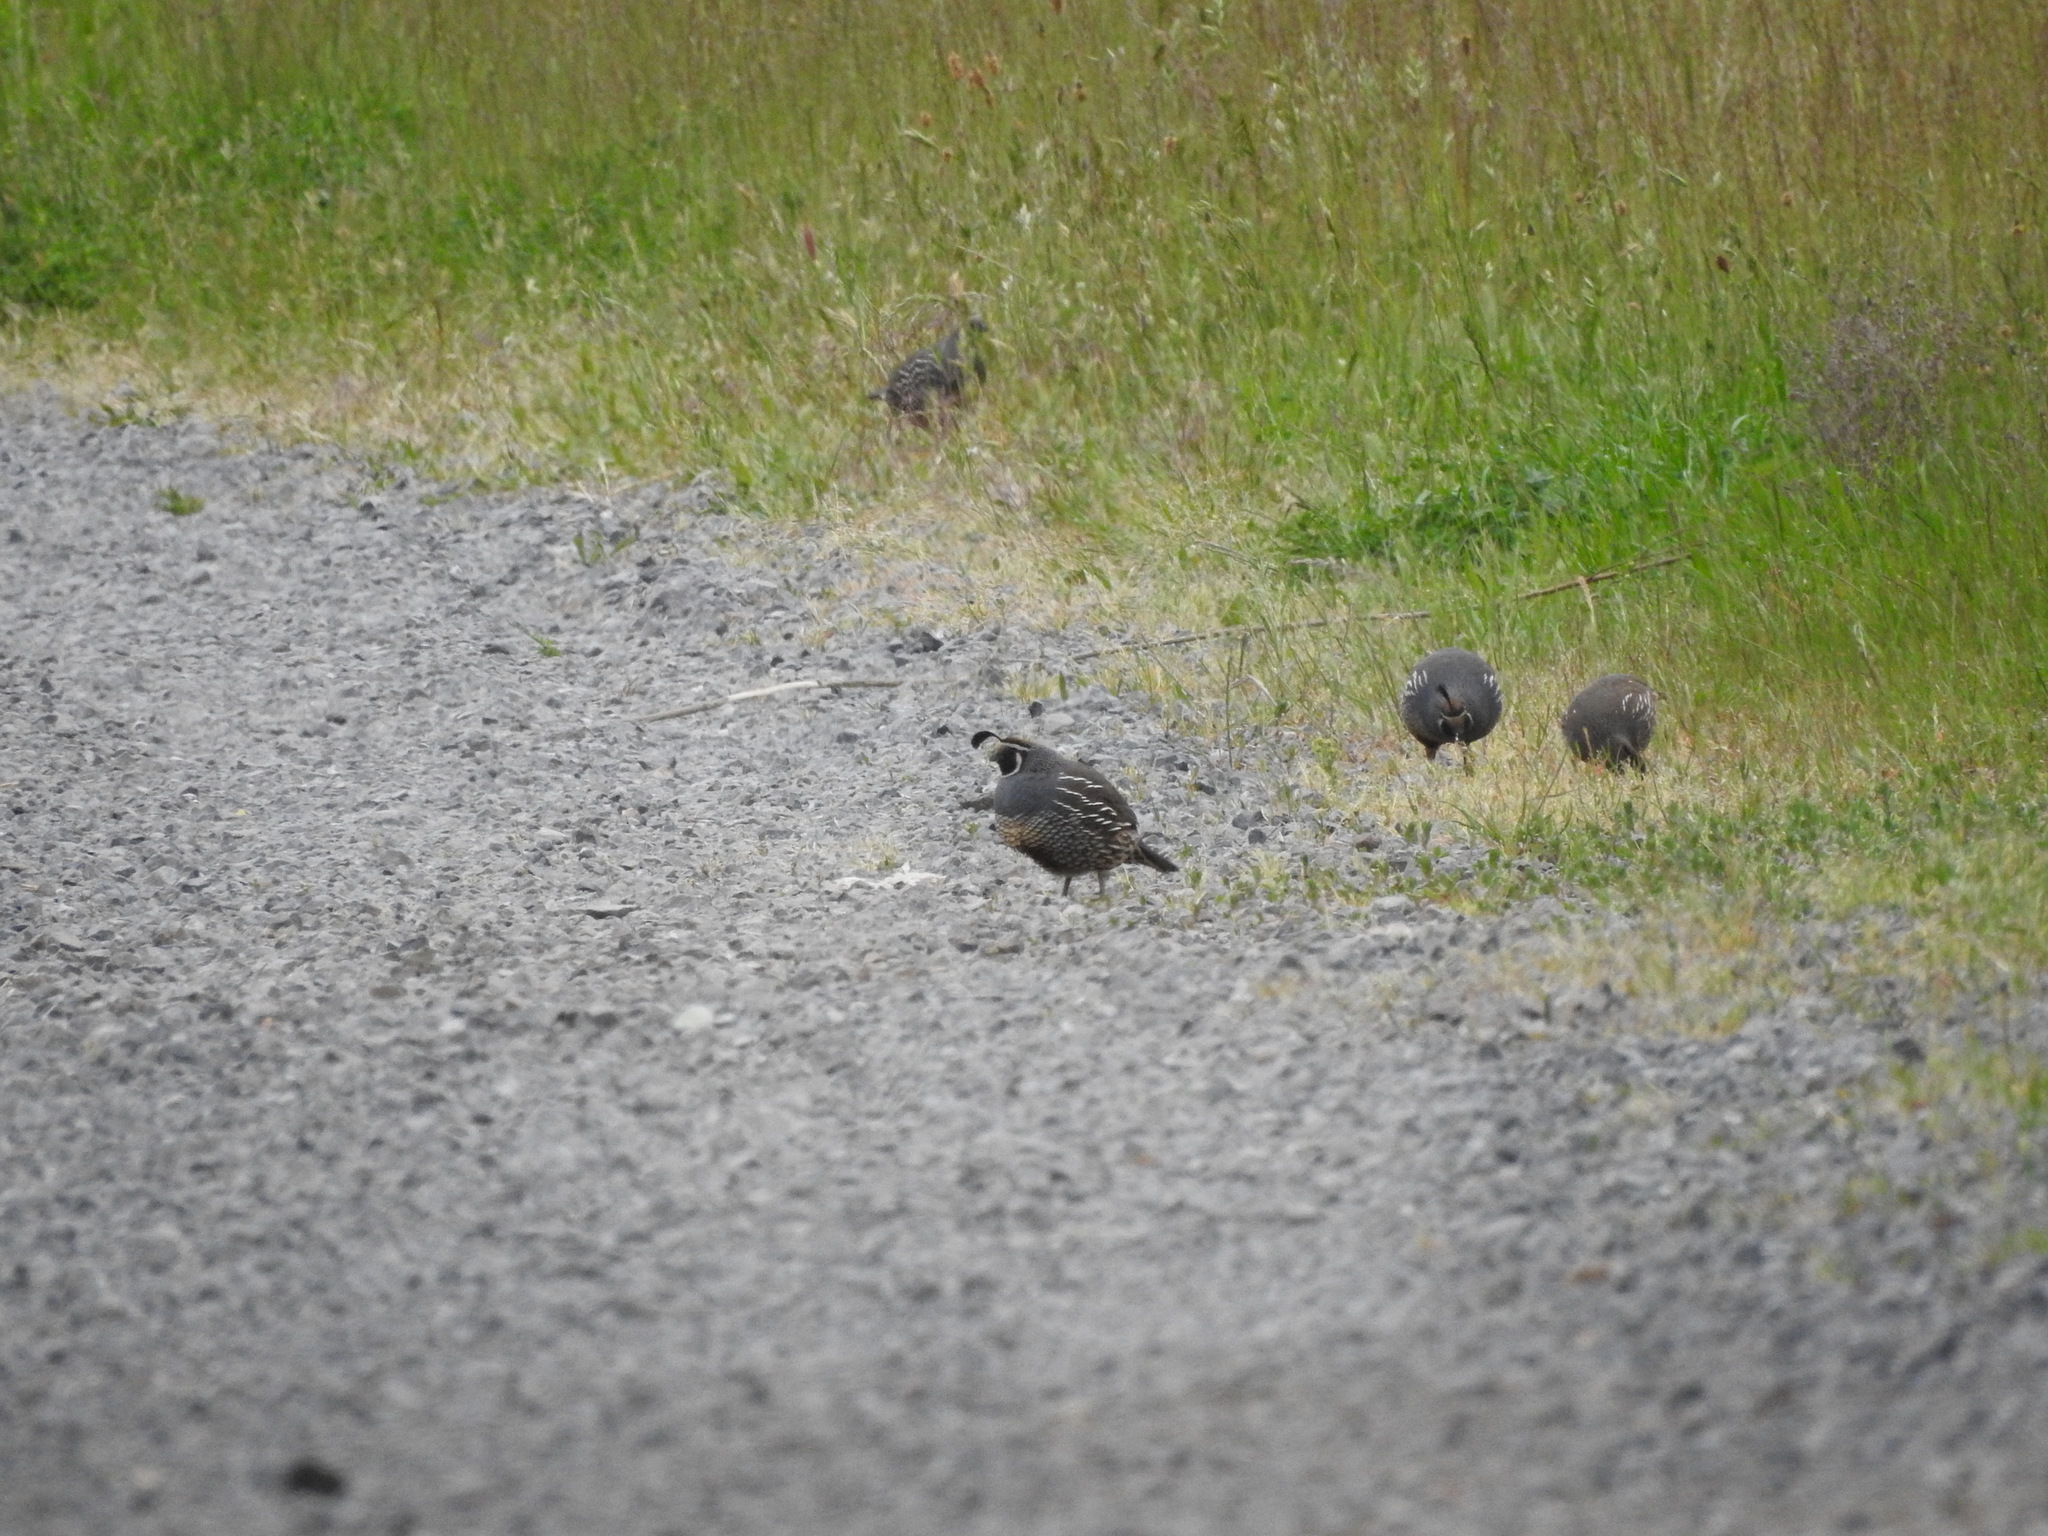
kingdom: Animalia
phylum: Chordata
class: Aves
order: Galliformes
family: Odontophoridae
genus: Callipepla
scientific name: Callipepla californica
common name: California quail
